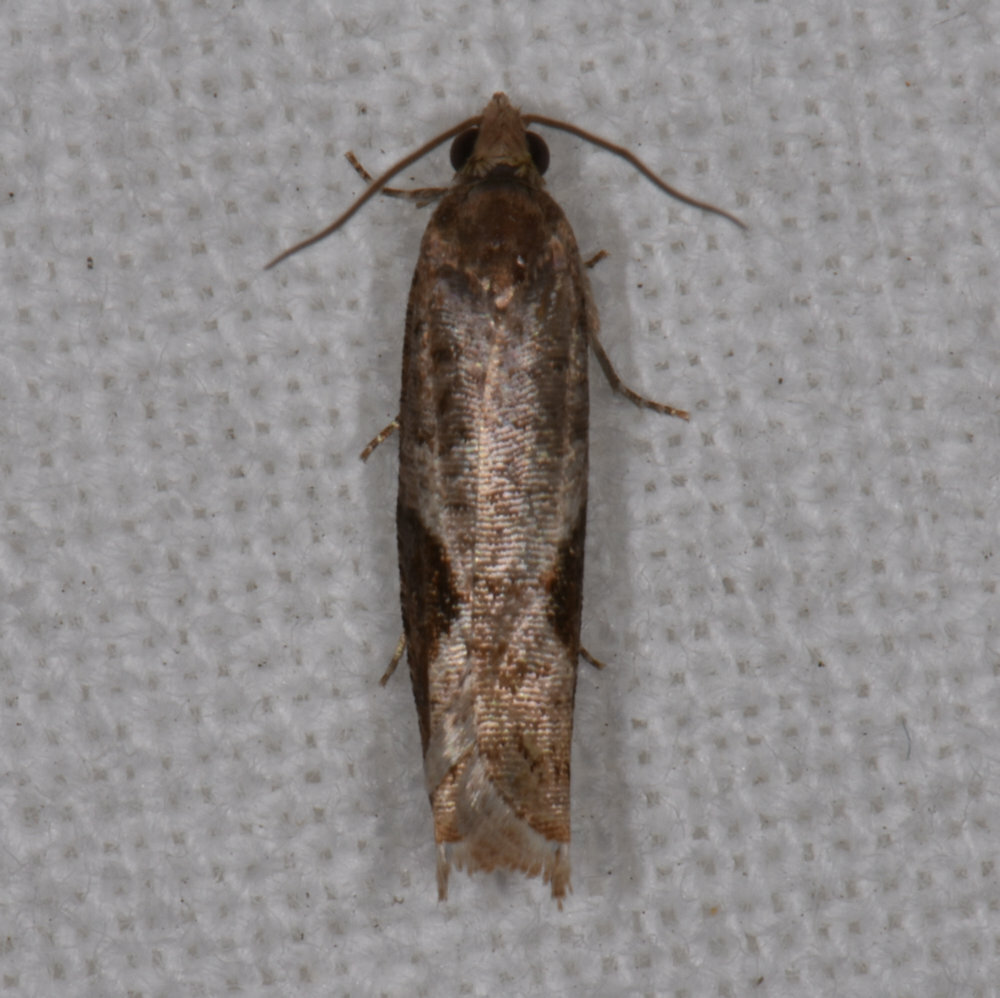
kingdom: Animalia
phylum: Arthropoda
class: Insecta
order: Lepidoptera
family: Tortricidae
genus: Pseudexentera
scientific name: Pseudexentera virginiana
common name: Virginia pseudexentera moth
